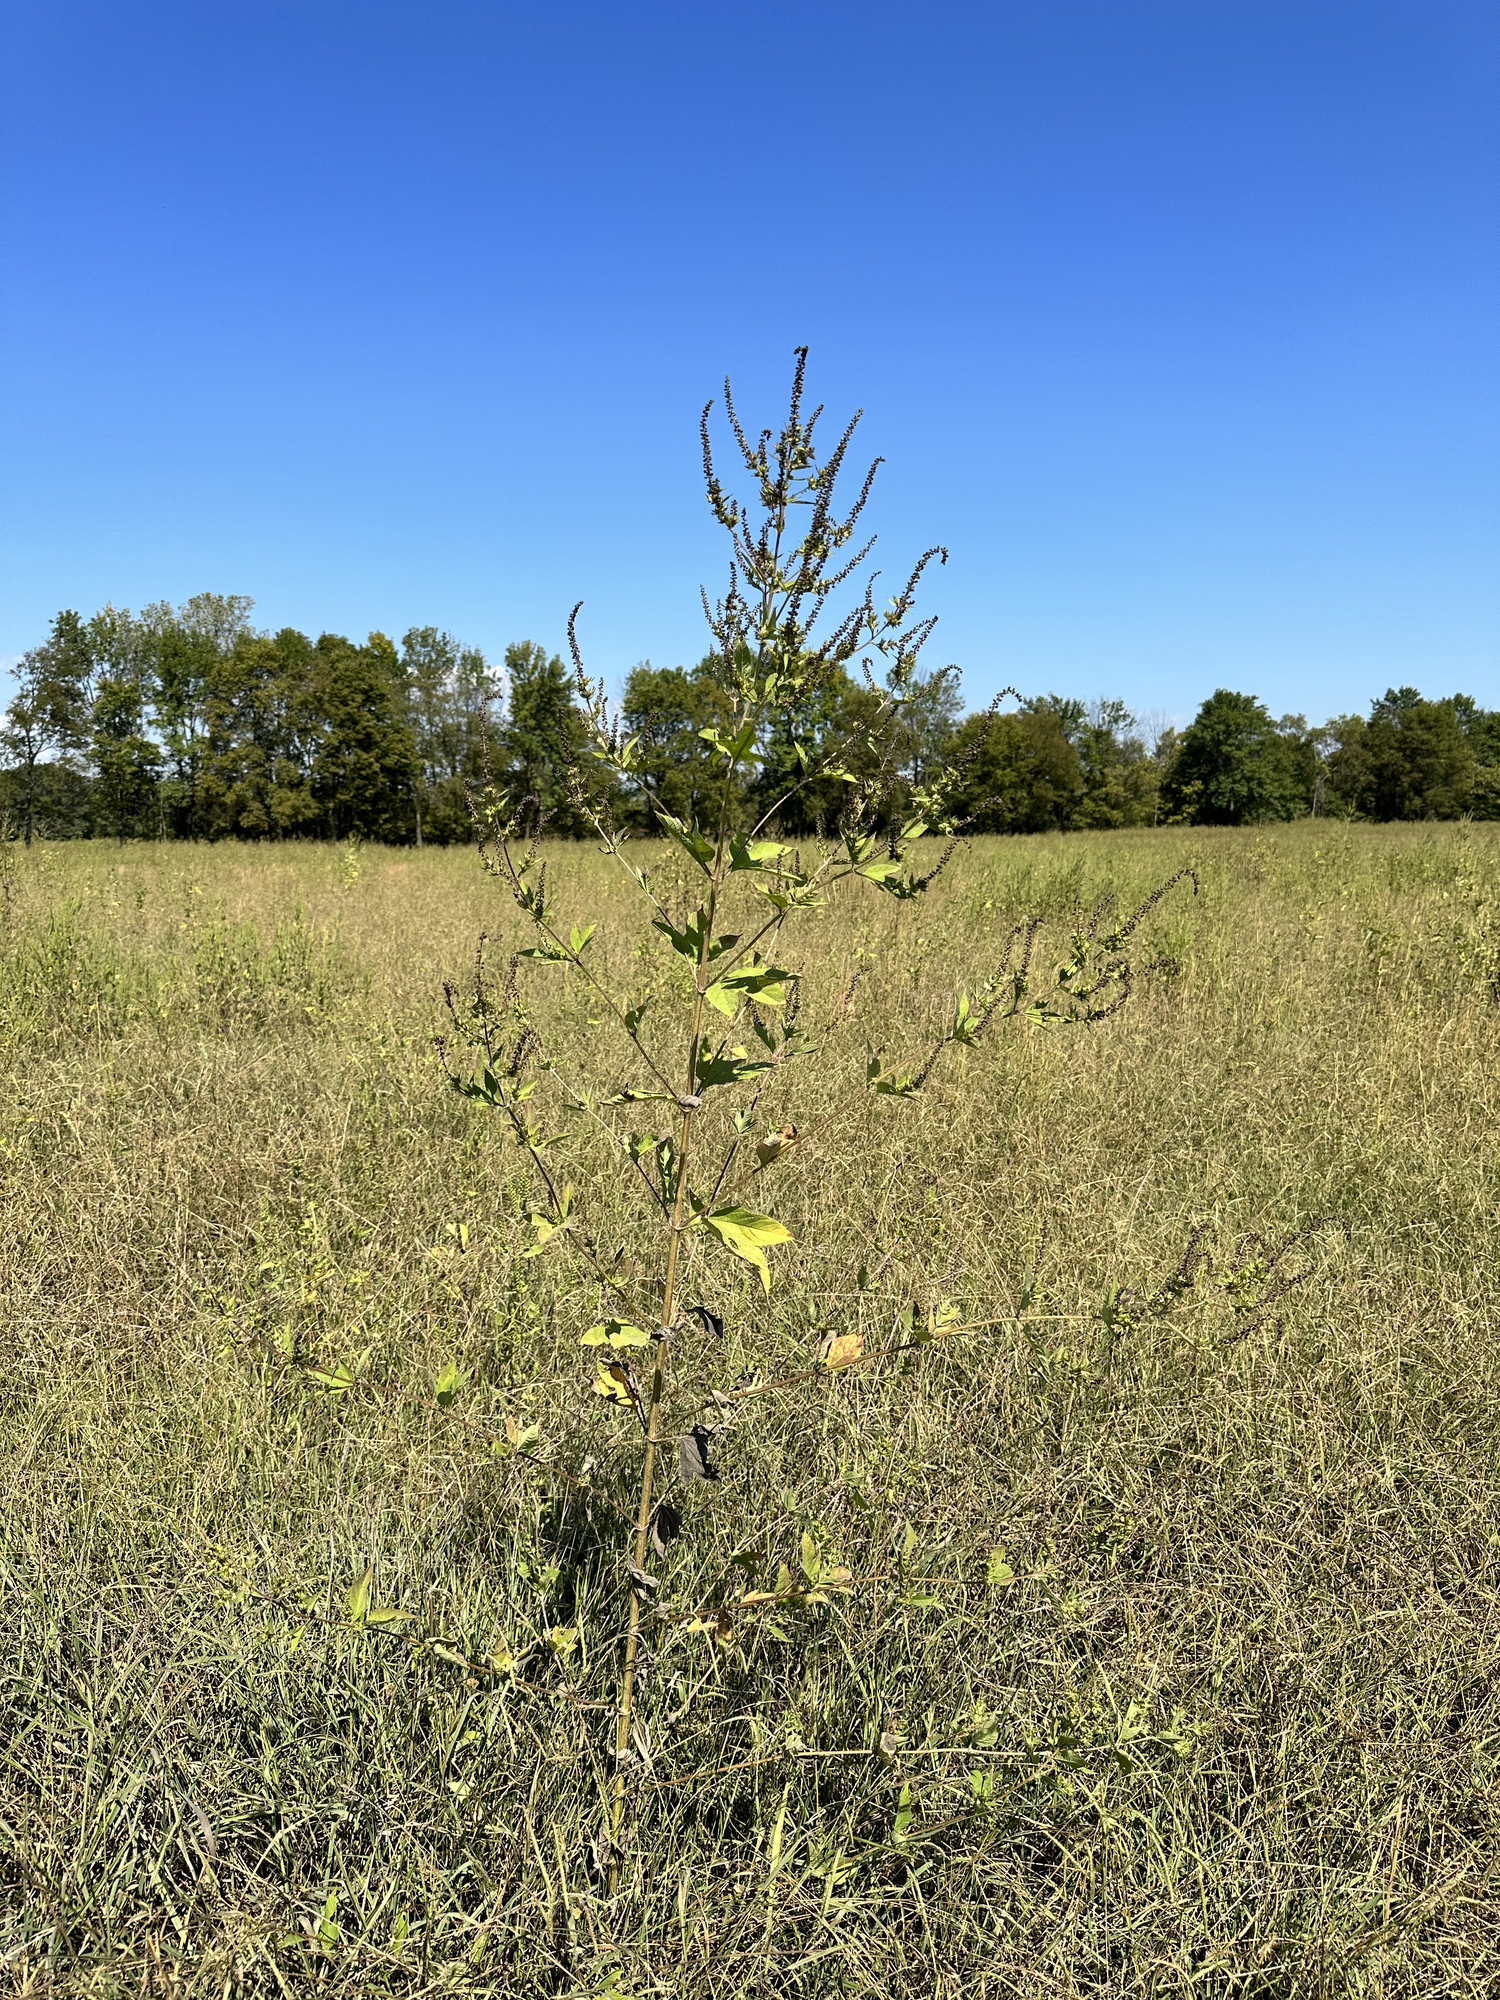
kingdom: Plantae
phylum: Tracheophyta
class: Magnoliopsida
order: Asterales
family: Asteraceae
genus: Ambrosia
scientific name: Ambrosia trifida
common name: Giant ragweed
